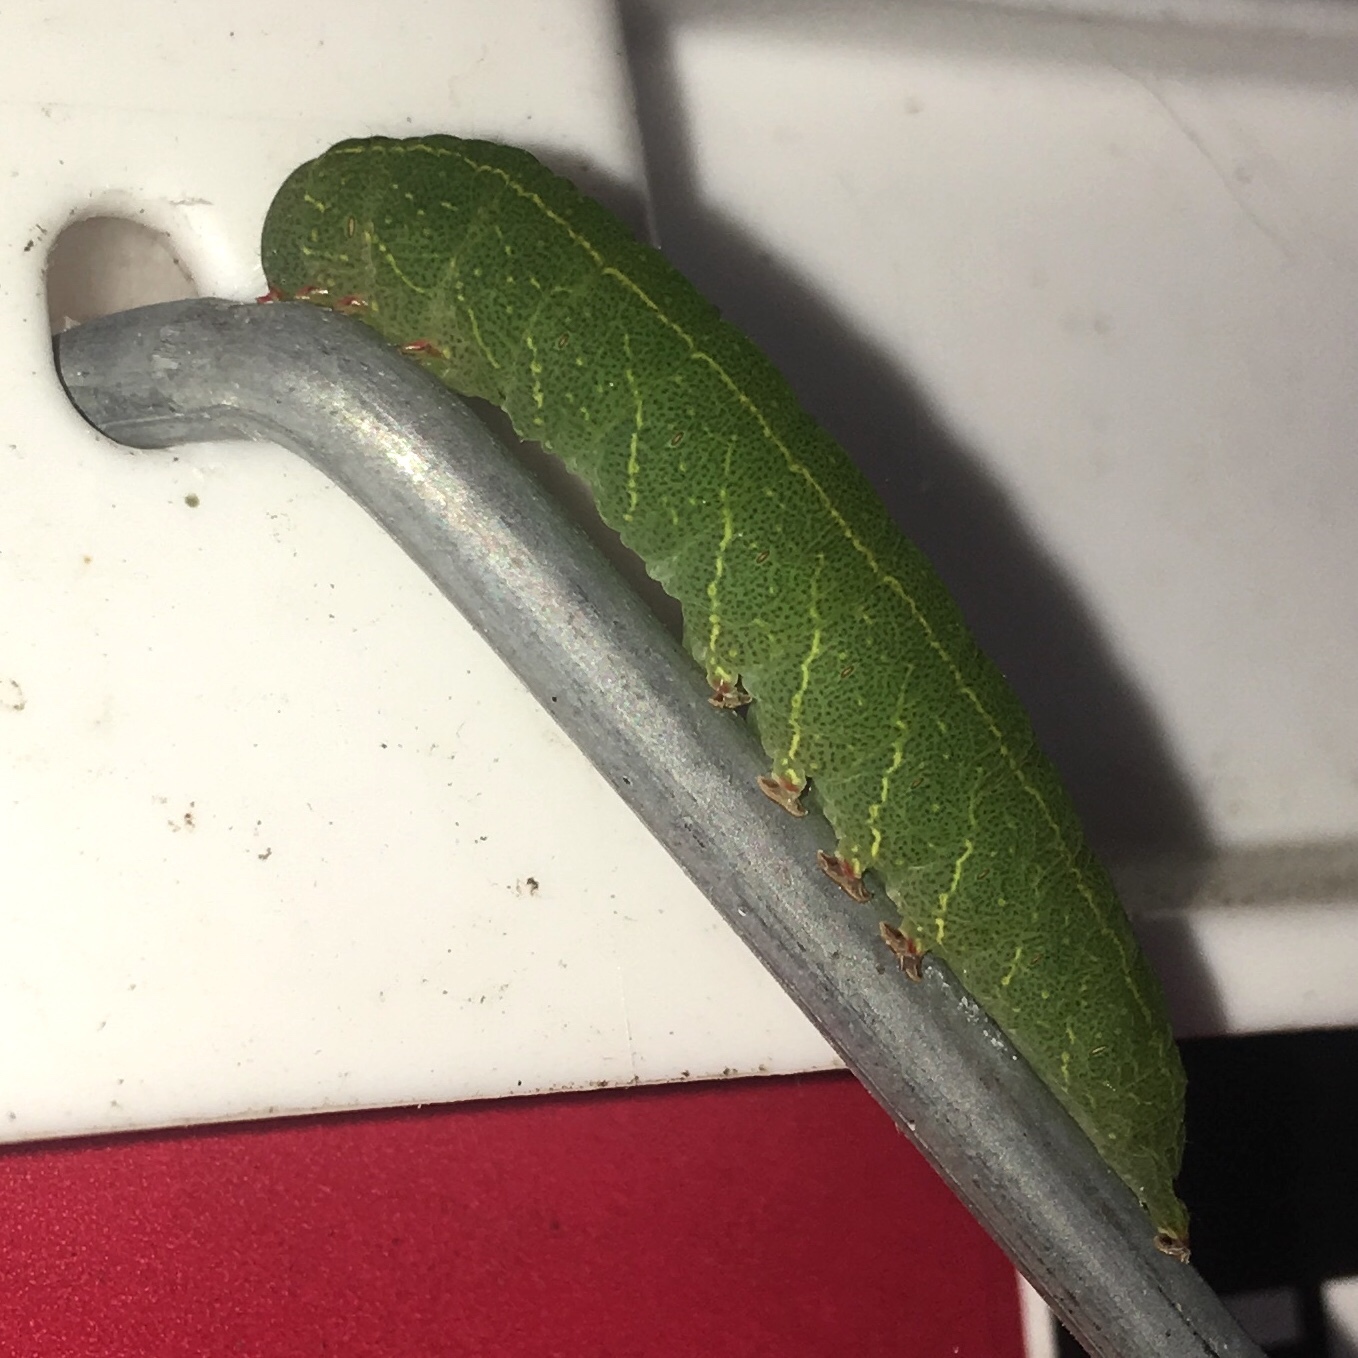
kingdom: Animalia
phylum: Arthropoda
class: Insecta
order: Lepidoptera
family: Erebidae
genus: Panopoda
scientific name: Panopoda rufimargo
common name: Red-lined panopoda moth
